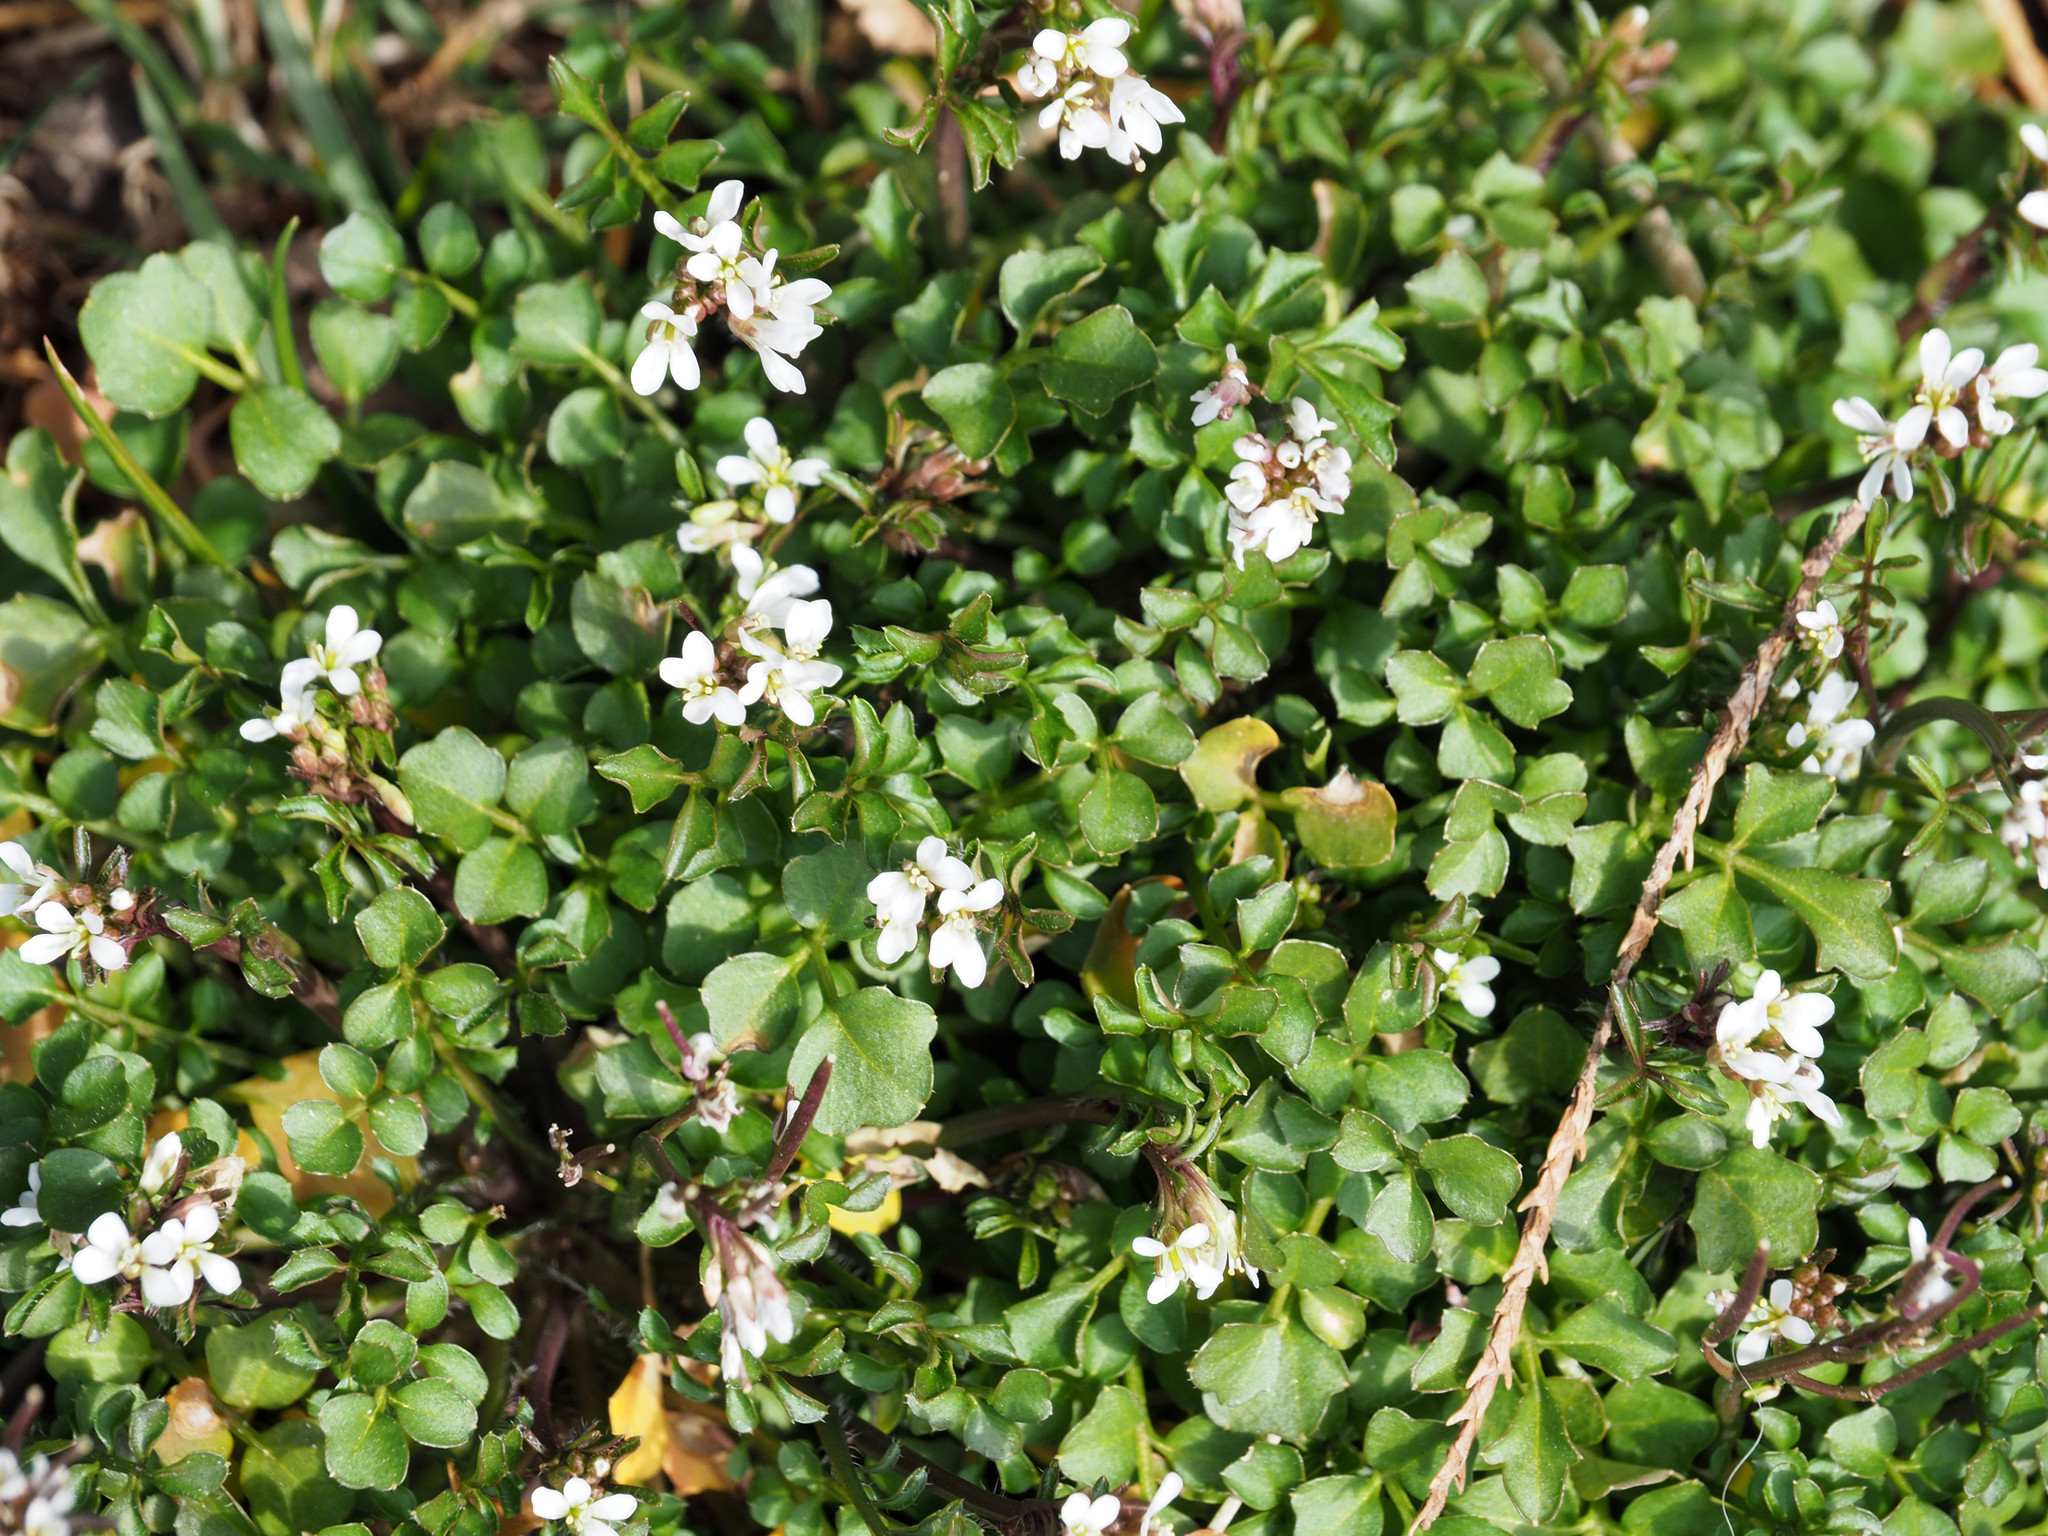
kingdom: Plantae
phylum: Tracheophyta
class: Magnoliopsida
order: Brassicales
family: Brassicaceae
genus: Cardamine
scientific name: Cardamine hirsuta
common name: Hairy bittercress
